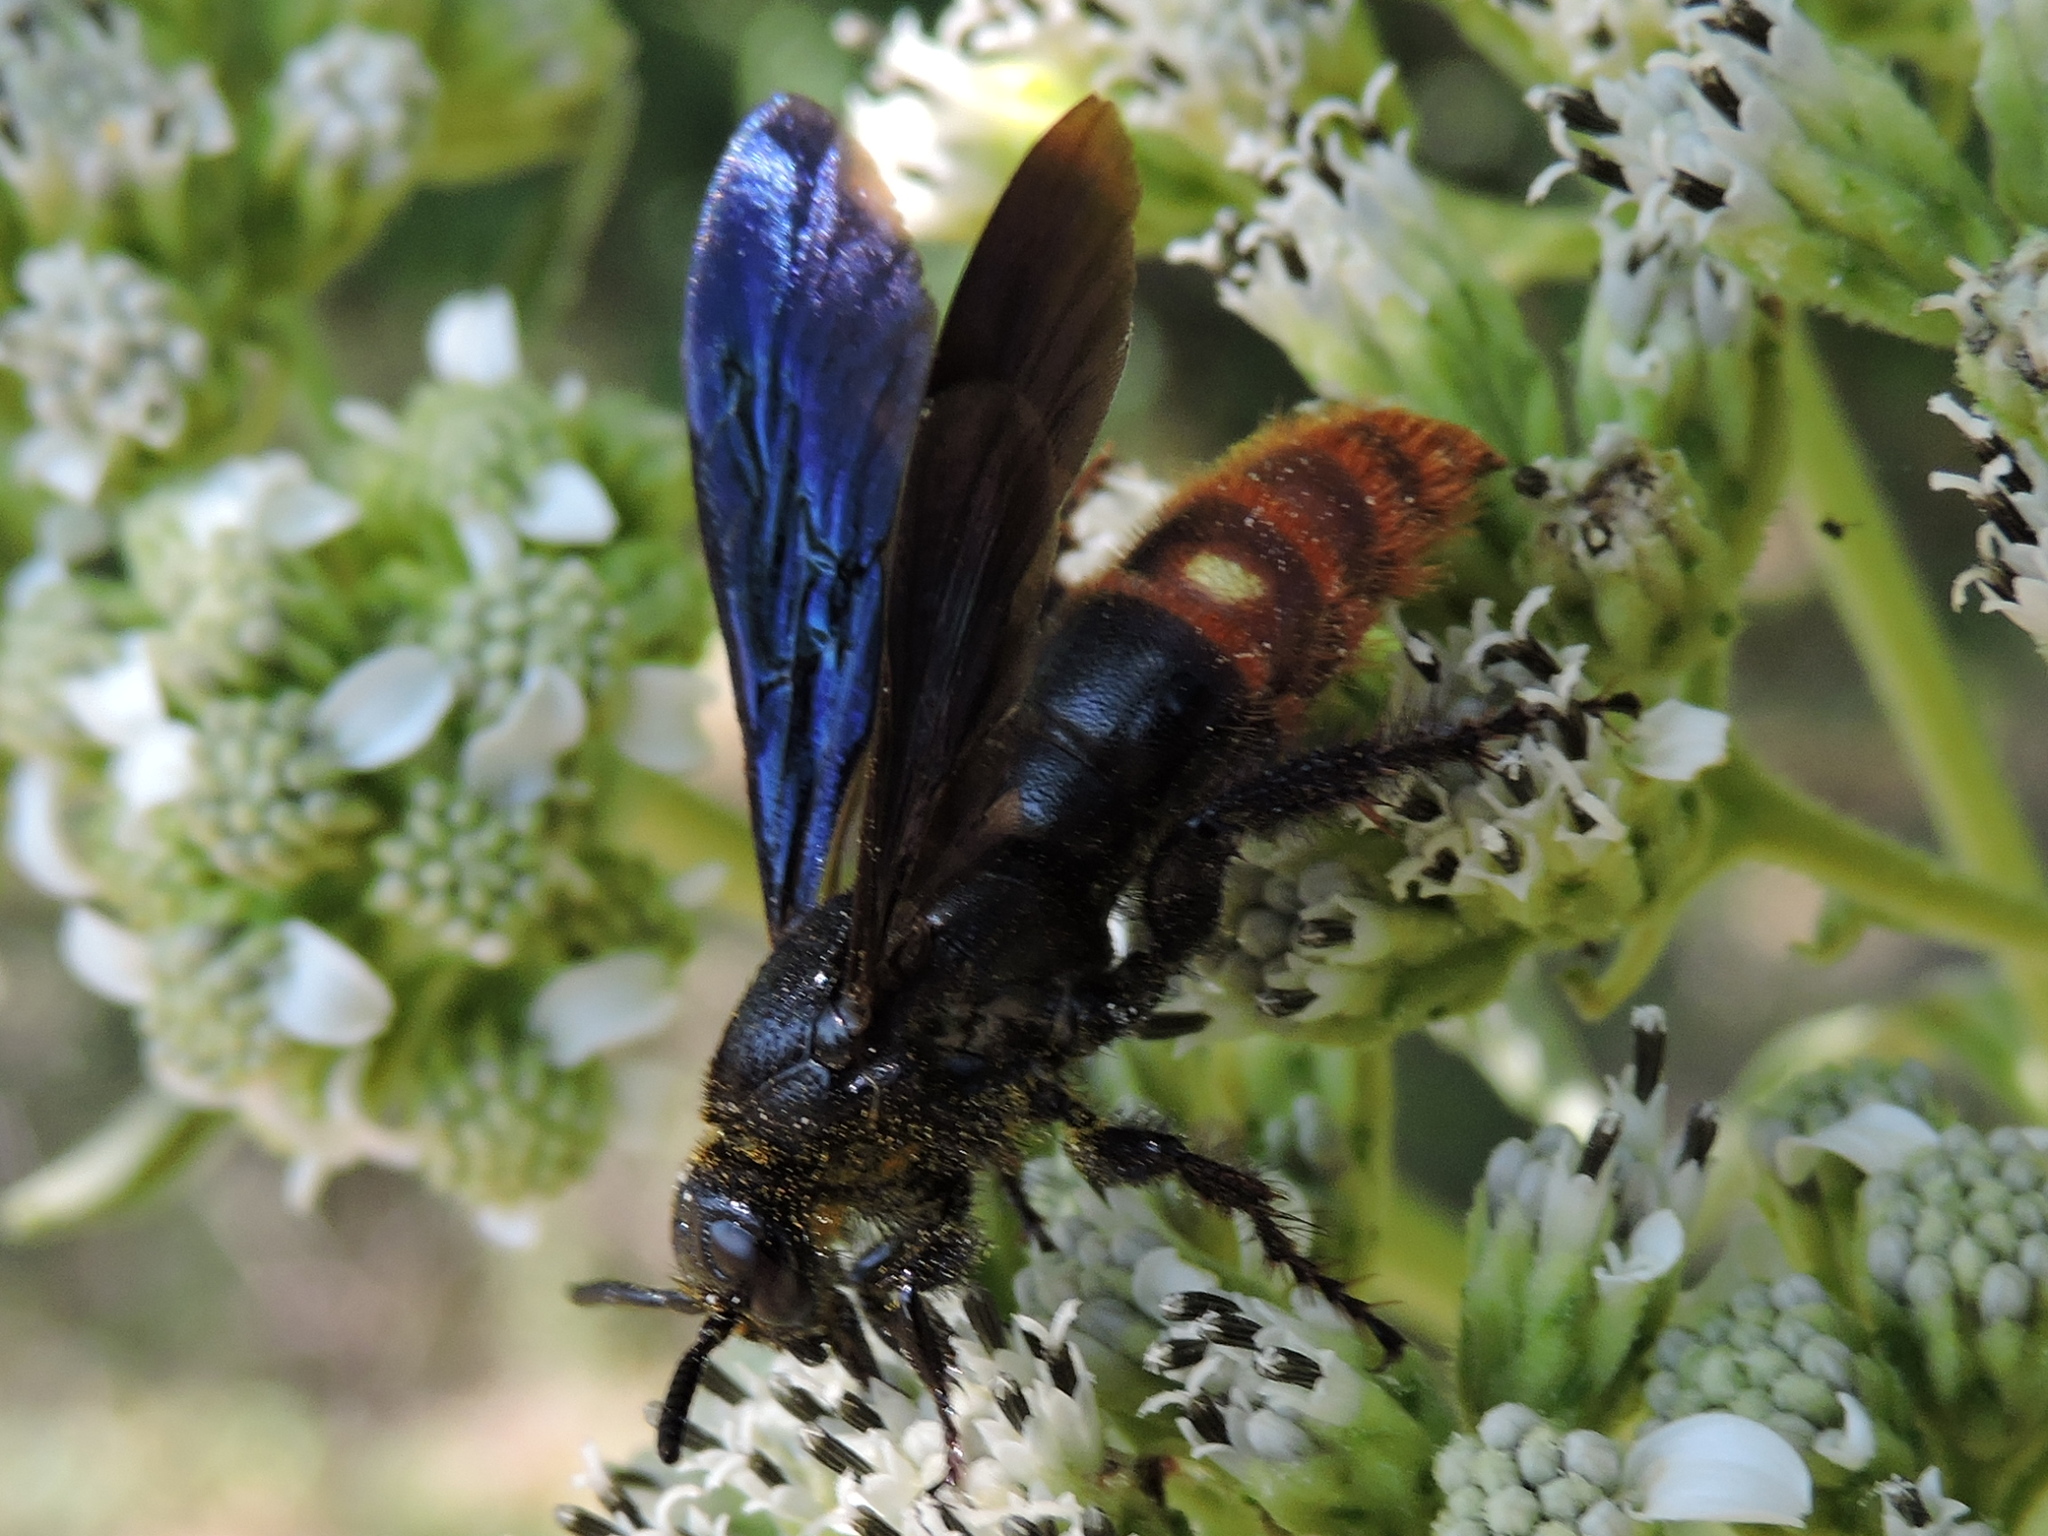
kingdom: Animalia
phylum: Arthropoda
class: Insecta
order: Hymenoptera
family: Scoliidae
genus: Scolia
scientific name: Scolia dubia
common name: Blue-winged scoliid wasp
